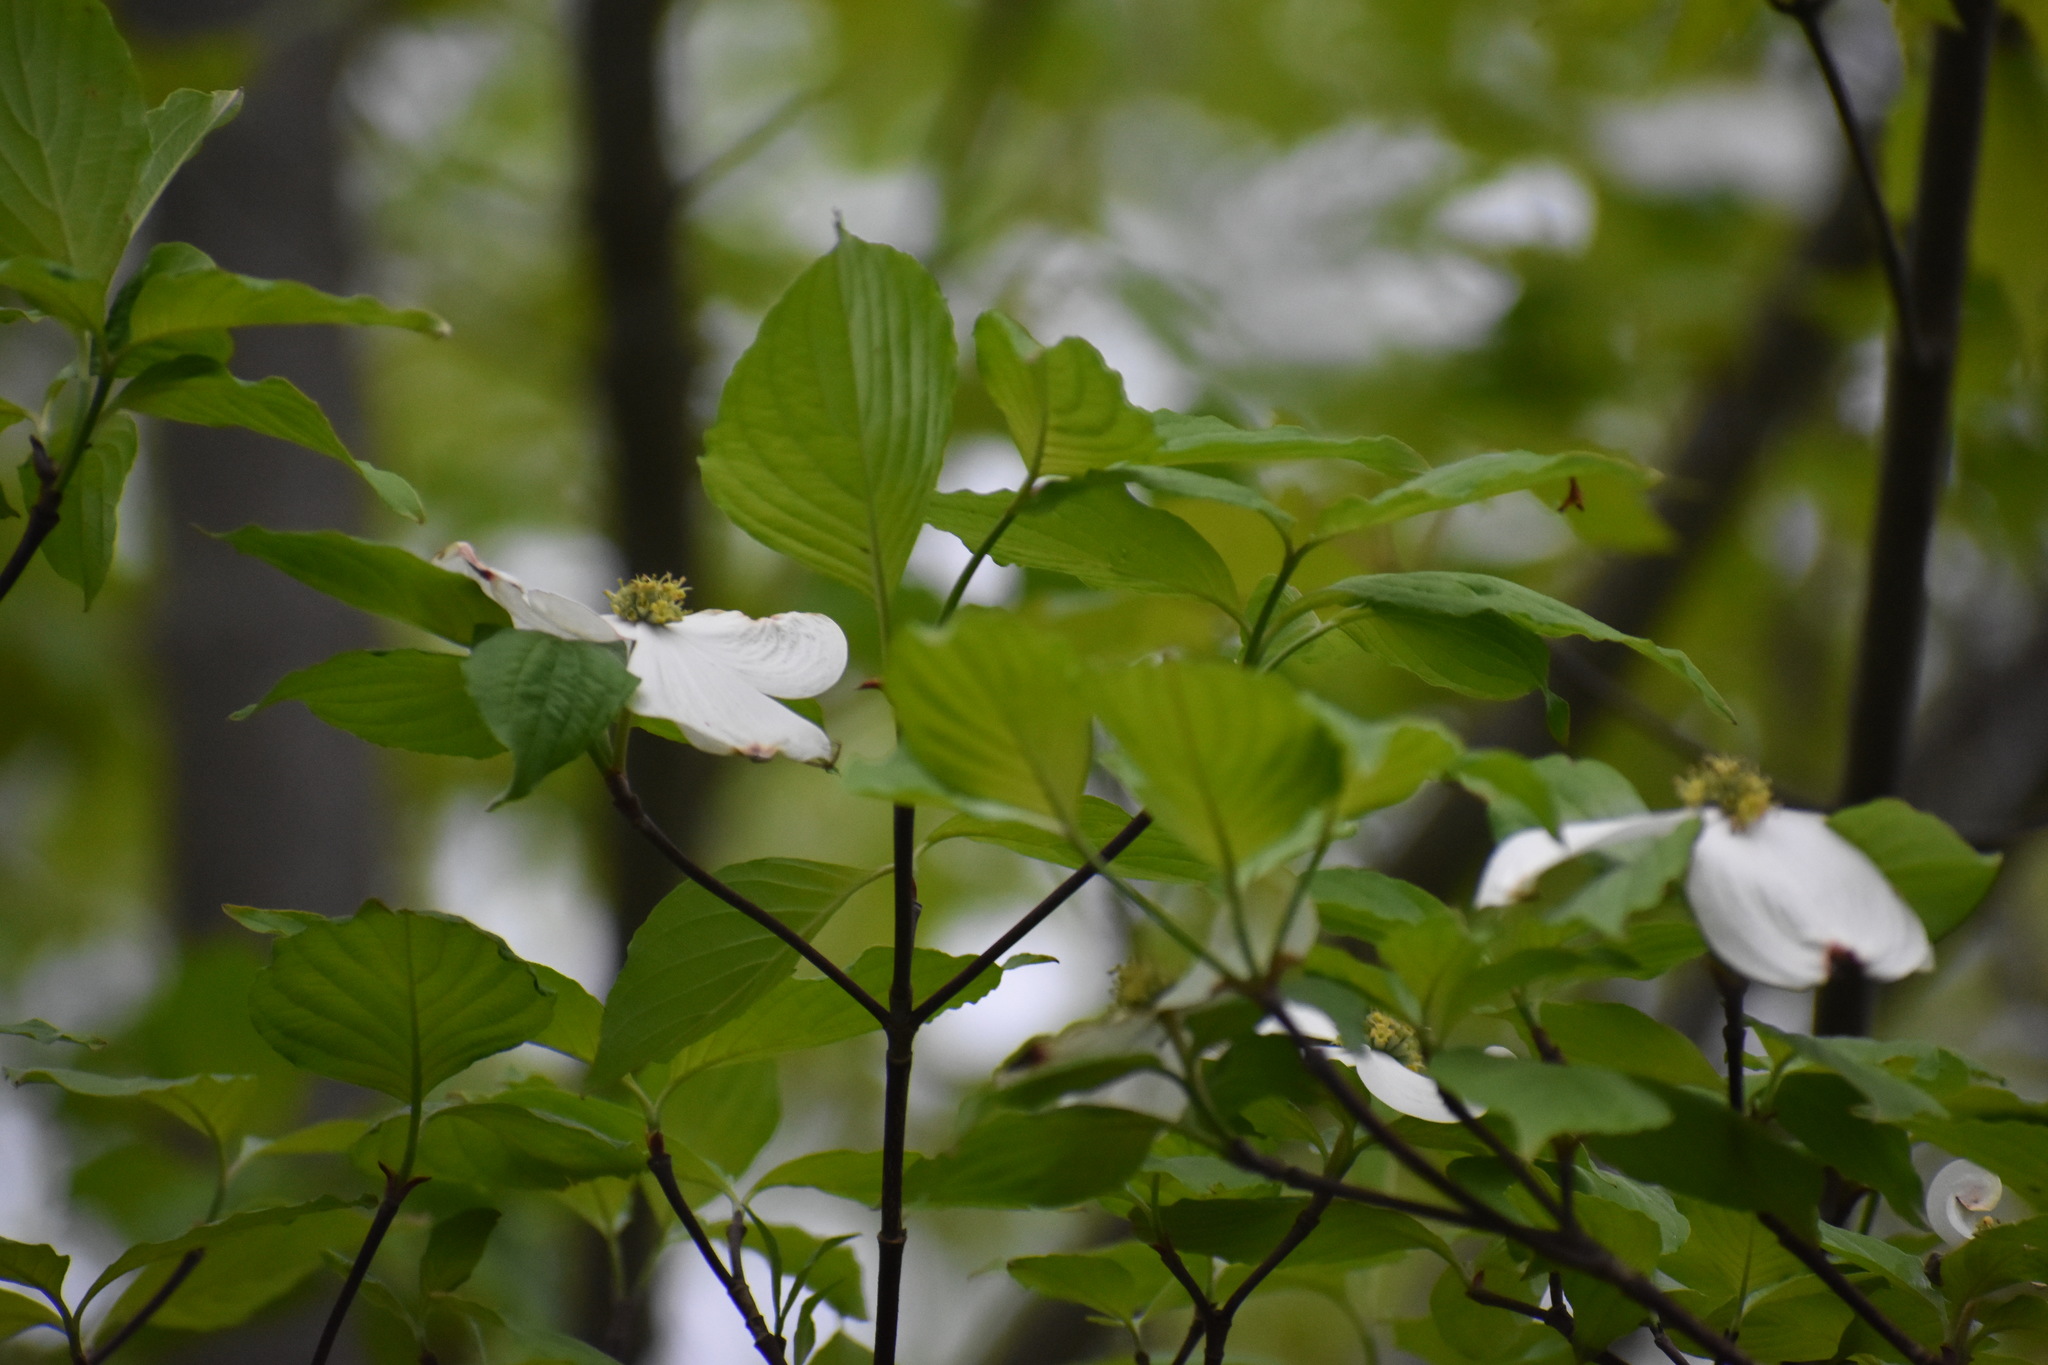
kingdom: Plantae
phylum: Tracheophyta
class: Magnoliopsida
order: Cornales
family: Cornaceae
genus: Cornus
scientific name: Cornus florida
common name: Flowering dogwood
